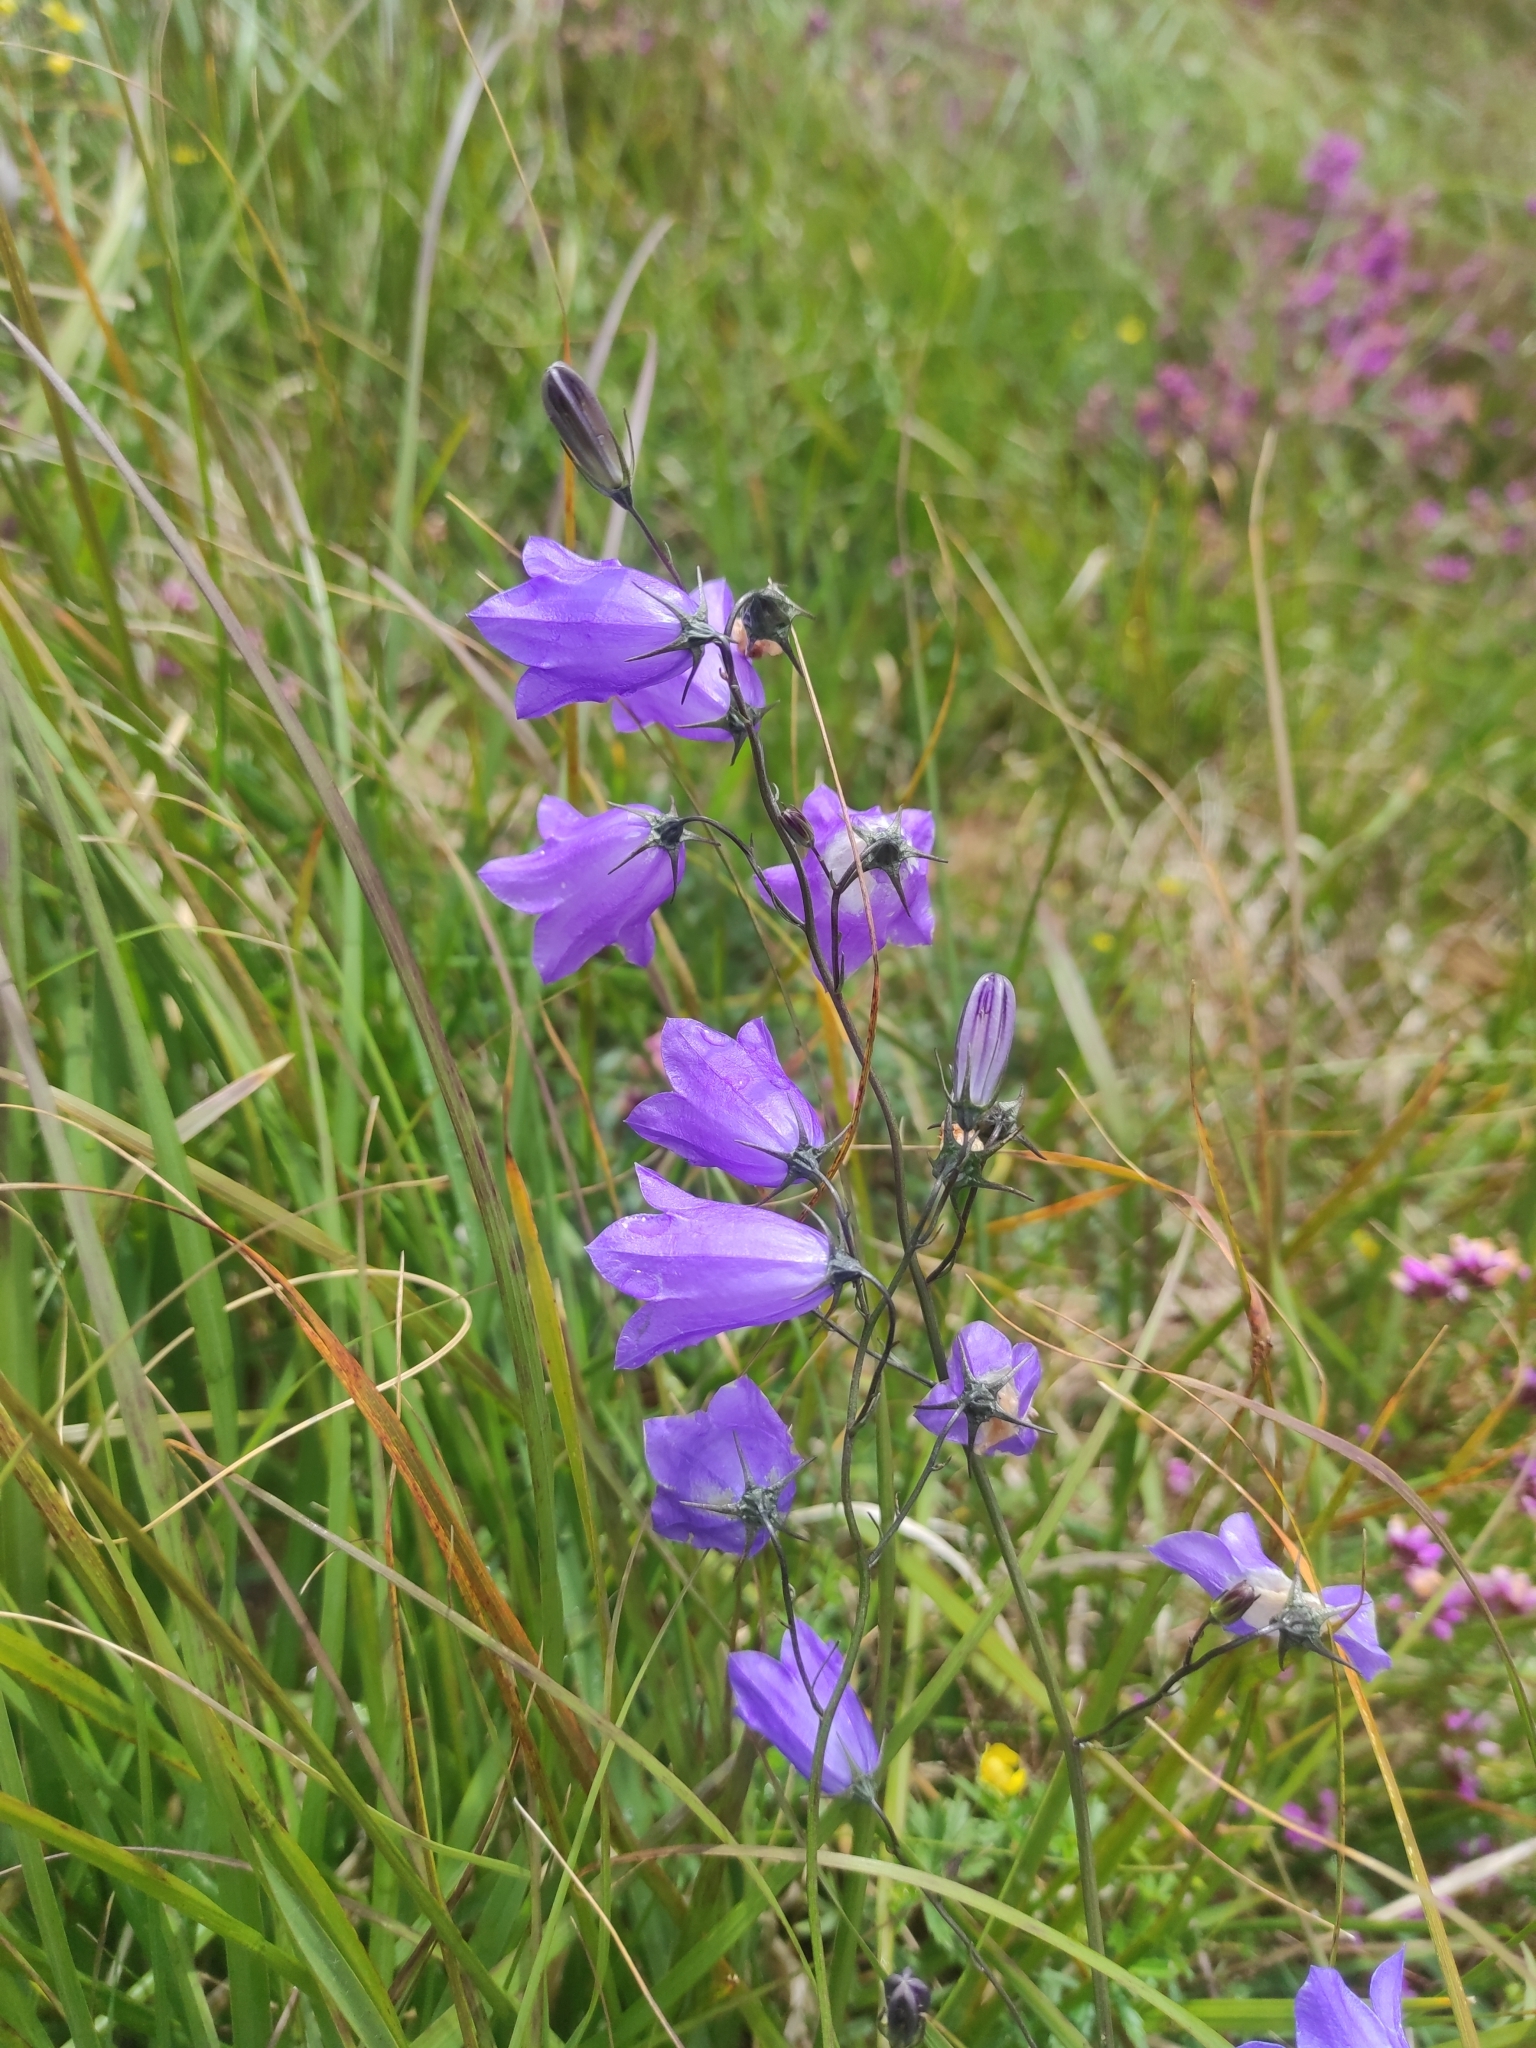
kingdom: Plantae
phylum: Tracheophyta
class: Magnoliopsida
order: Asterales
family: Campanulaceae
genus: Campanula
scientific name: Campanula rotundifolia
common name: Harebell
